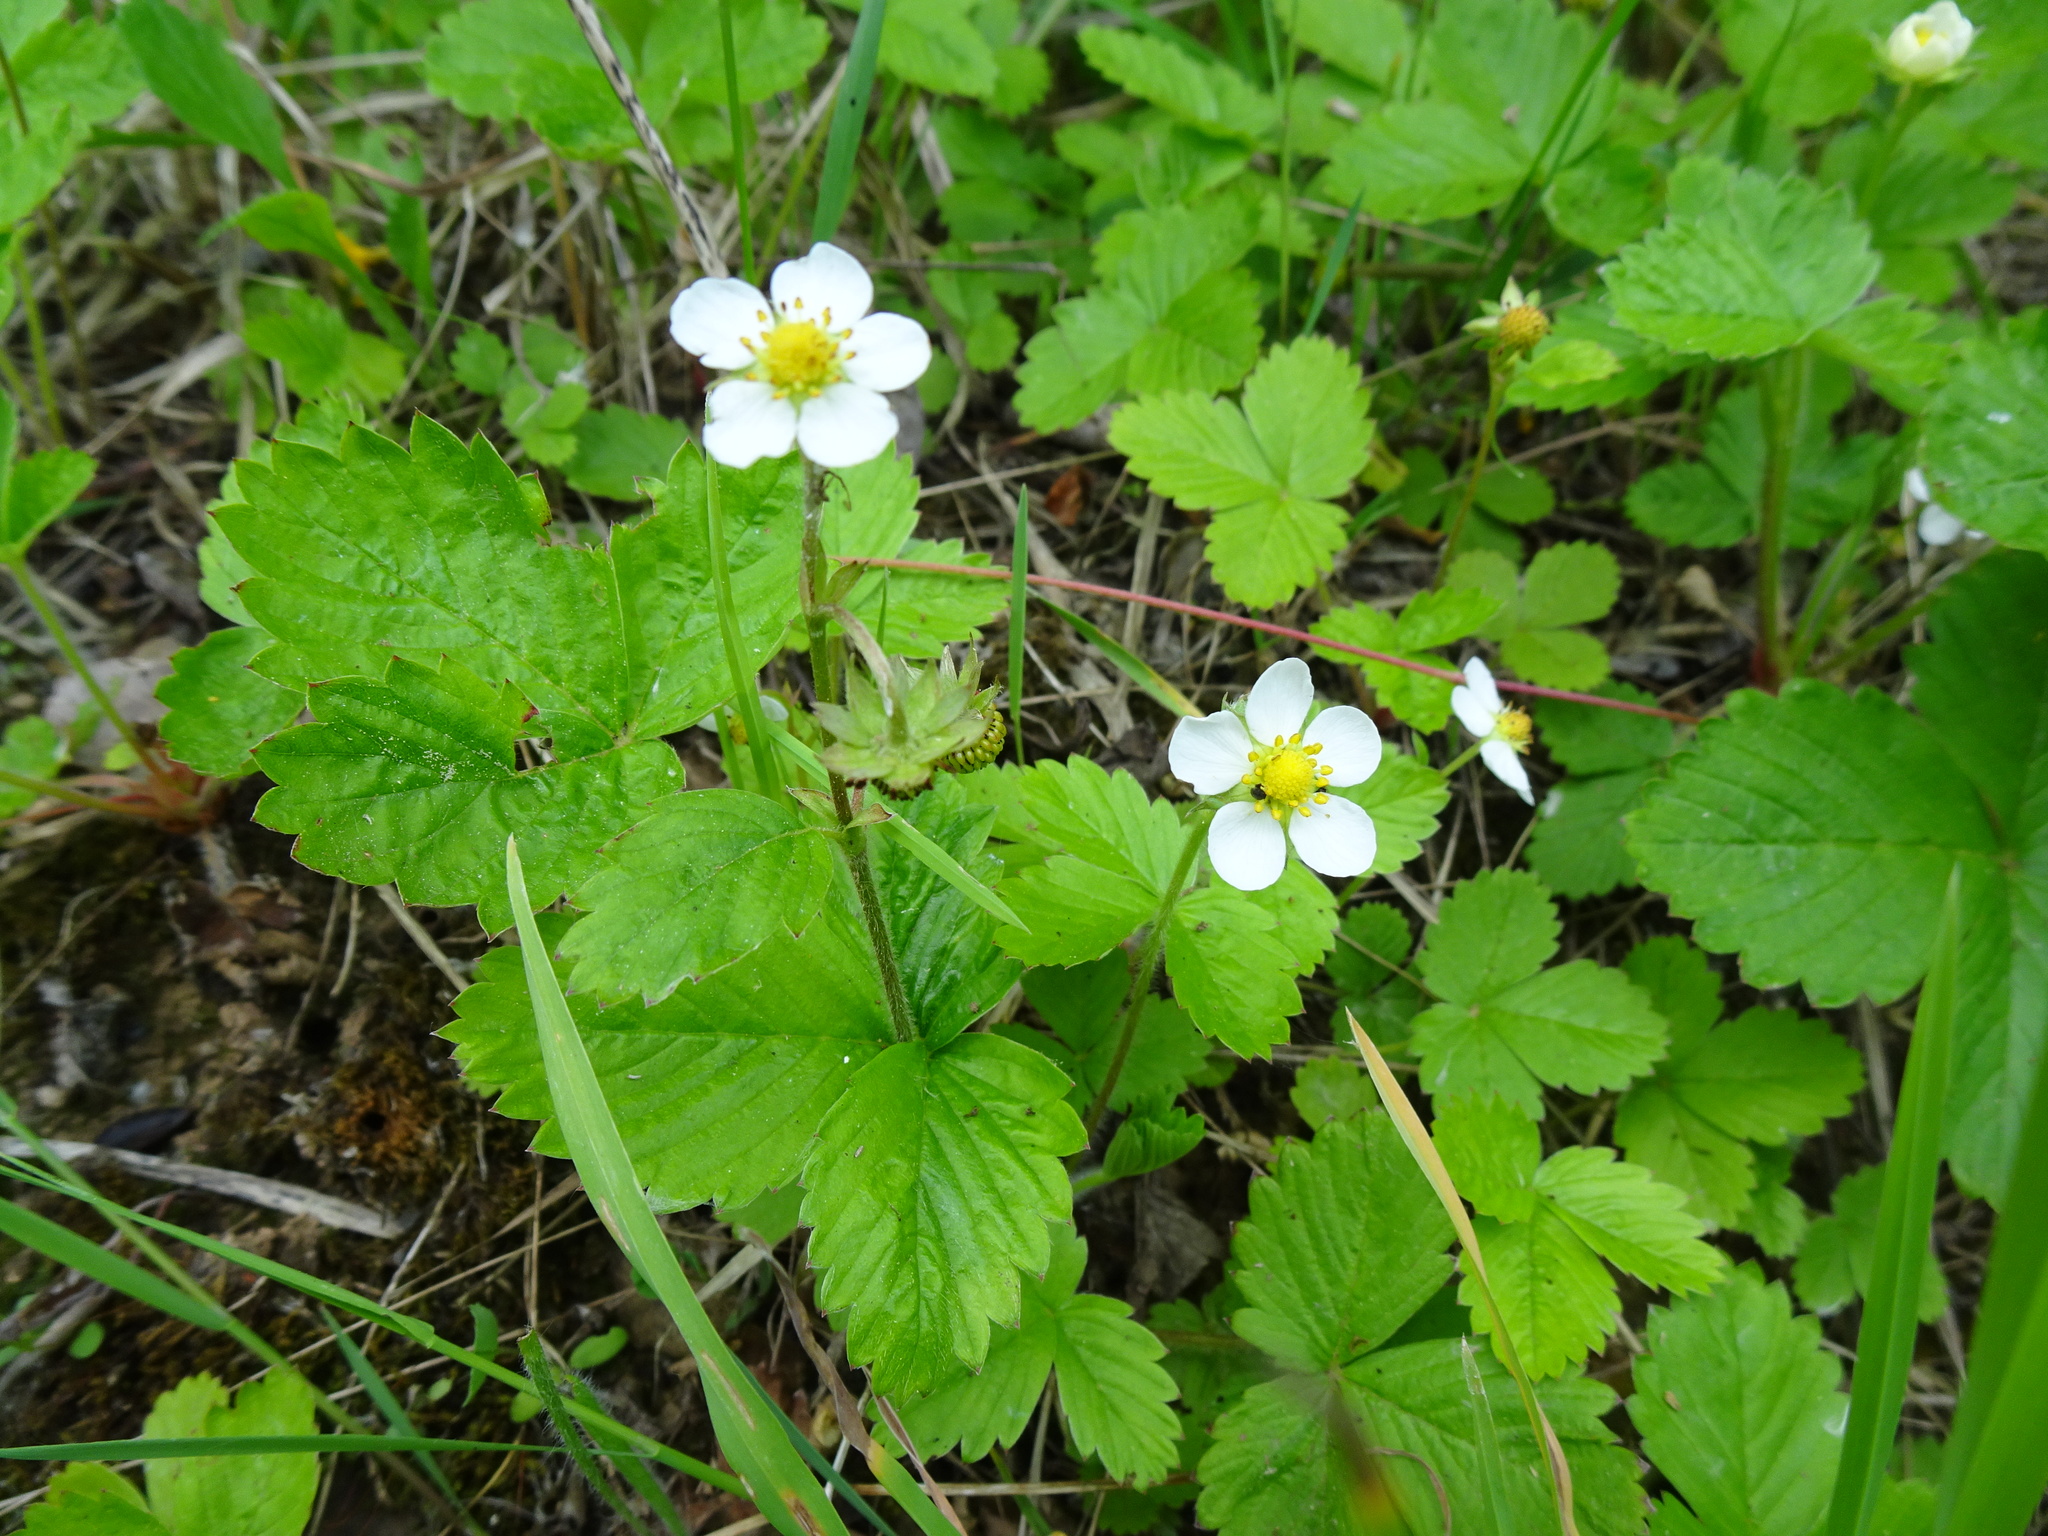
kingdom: Plantae
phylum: Tracheophyta
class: Magnoliopsida
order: Rosales
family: Rosaceae
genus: Fragaria
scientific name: Fragaria vesca
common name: Wild strawberry
